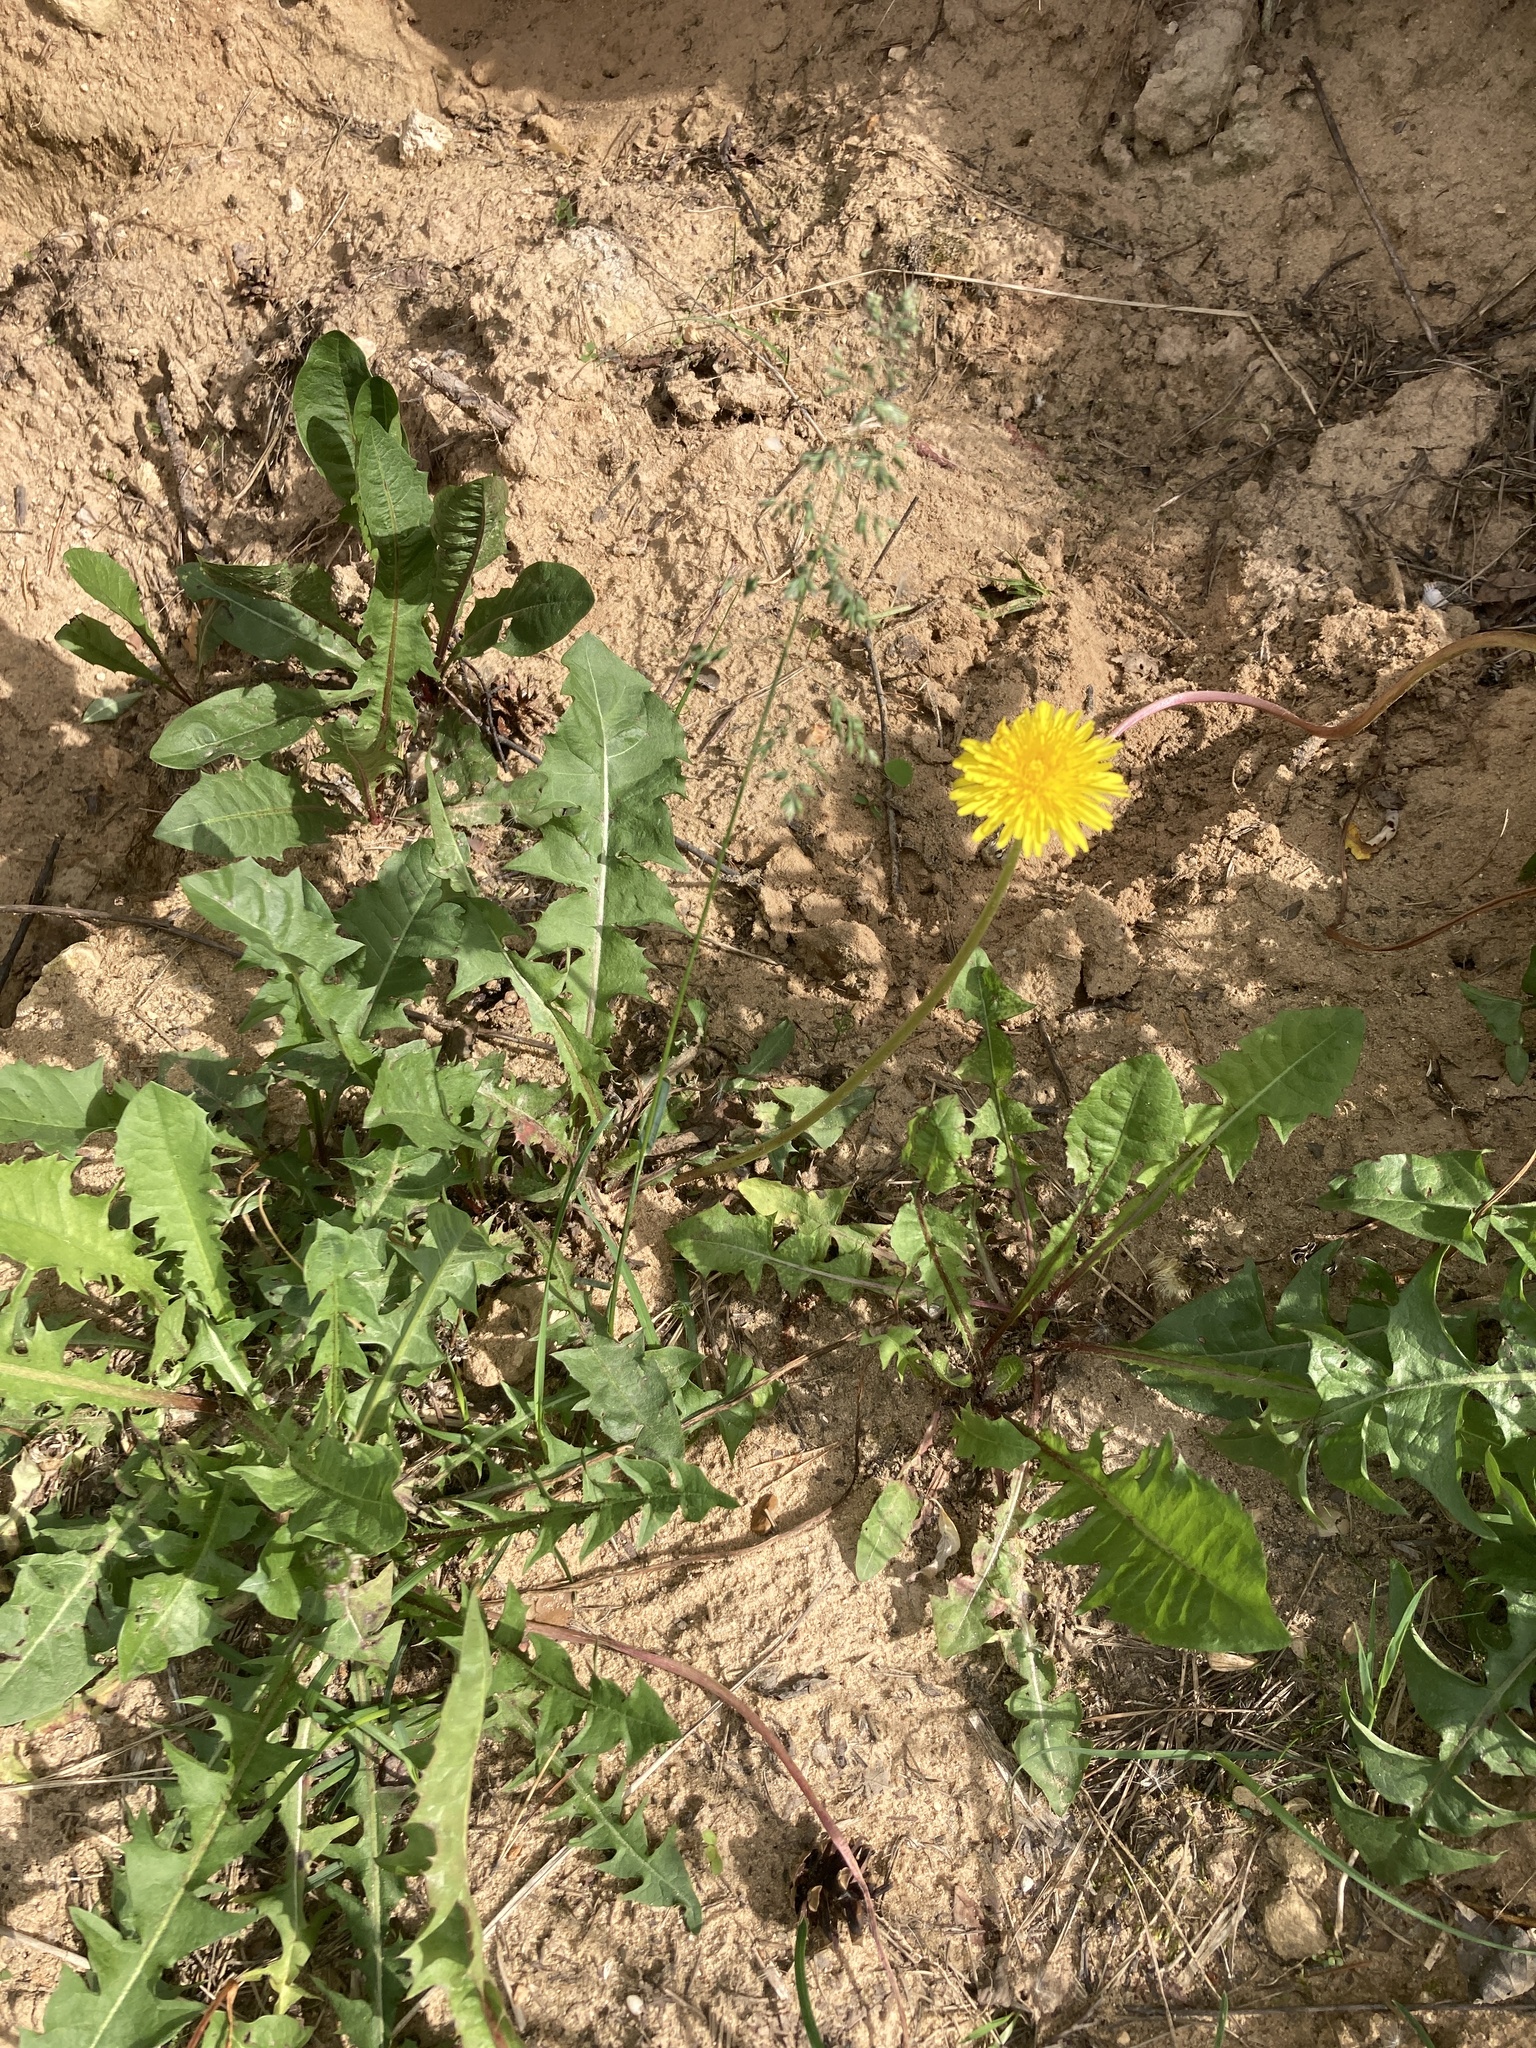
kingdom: Plantae
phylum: Tracheophyta
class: Magnoliopsida
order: Asterales
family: Asteraceae
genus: Taraxacum
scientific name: Taraxacum officinale
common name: Common dandelion
